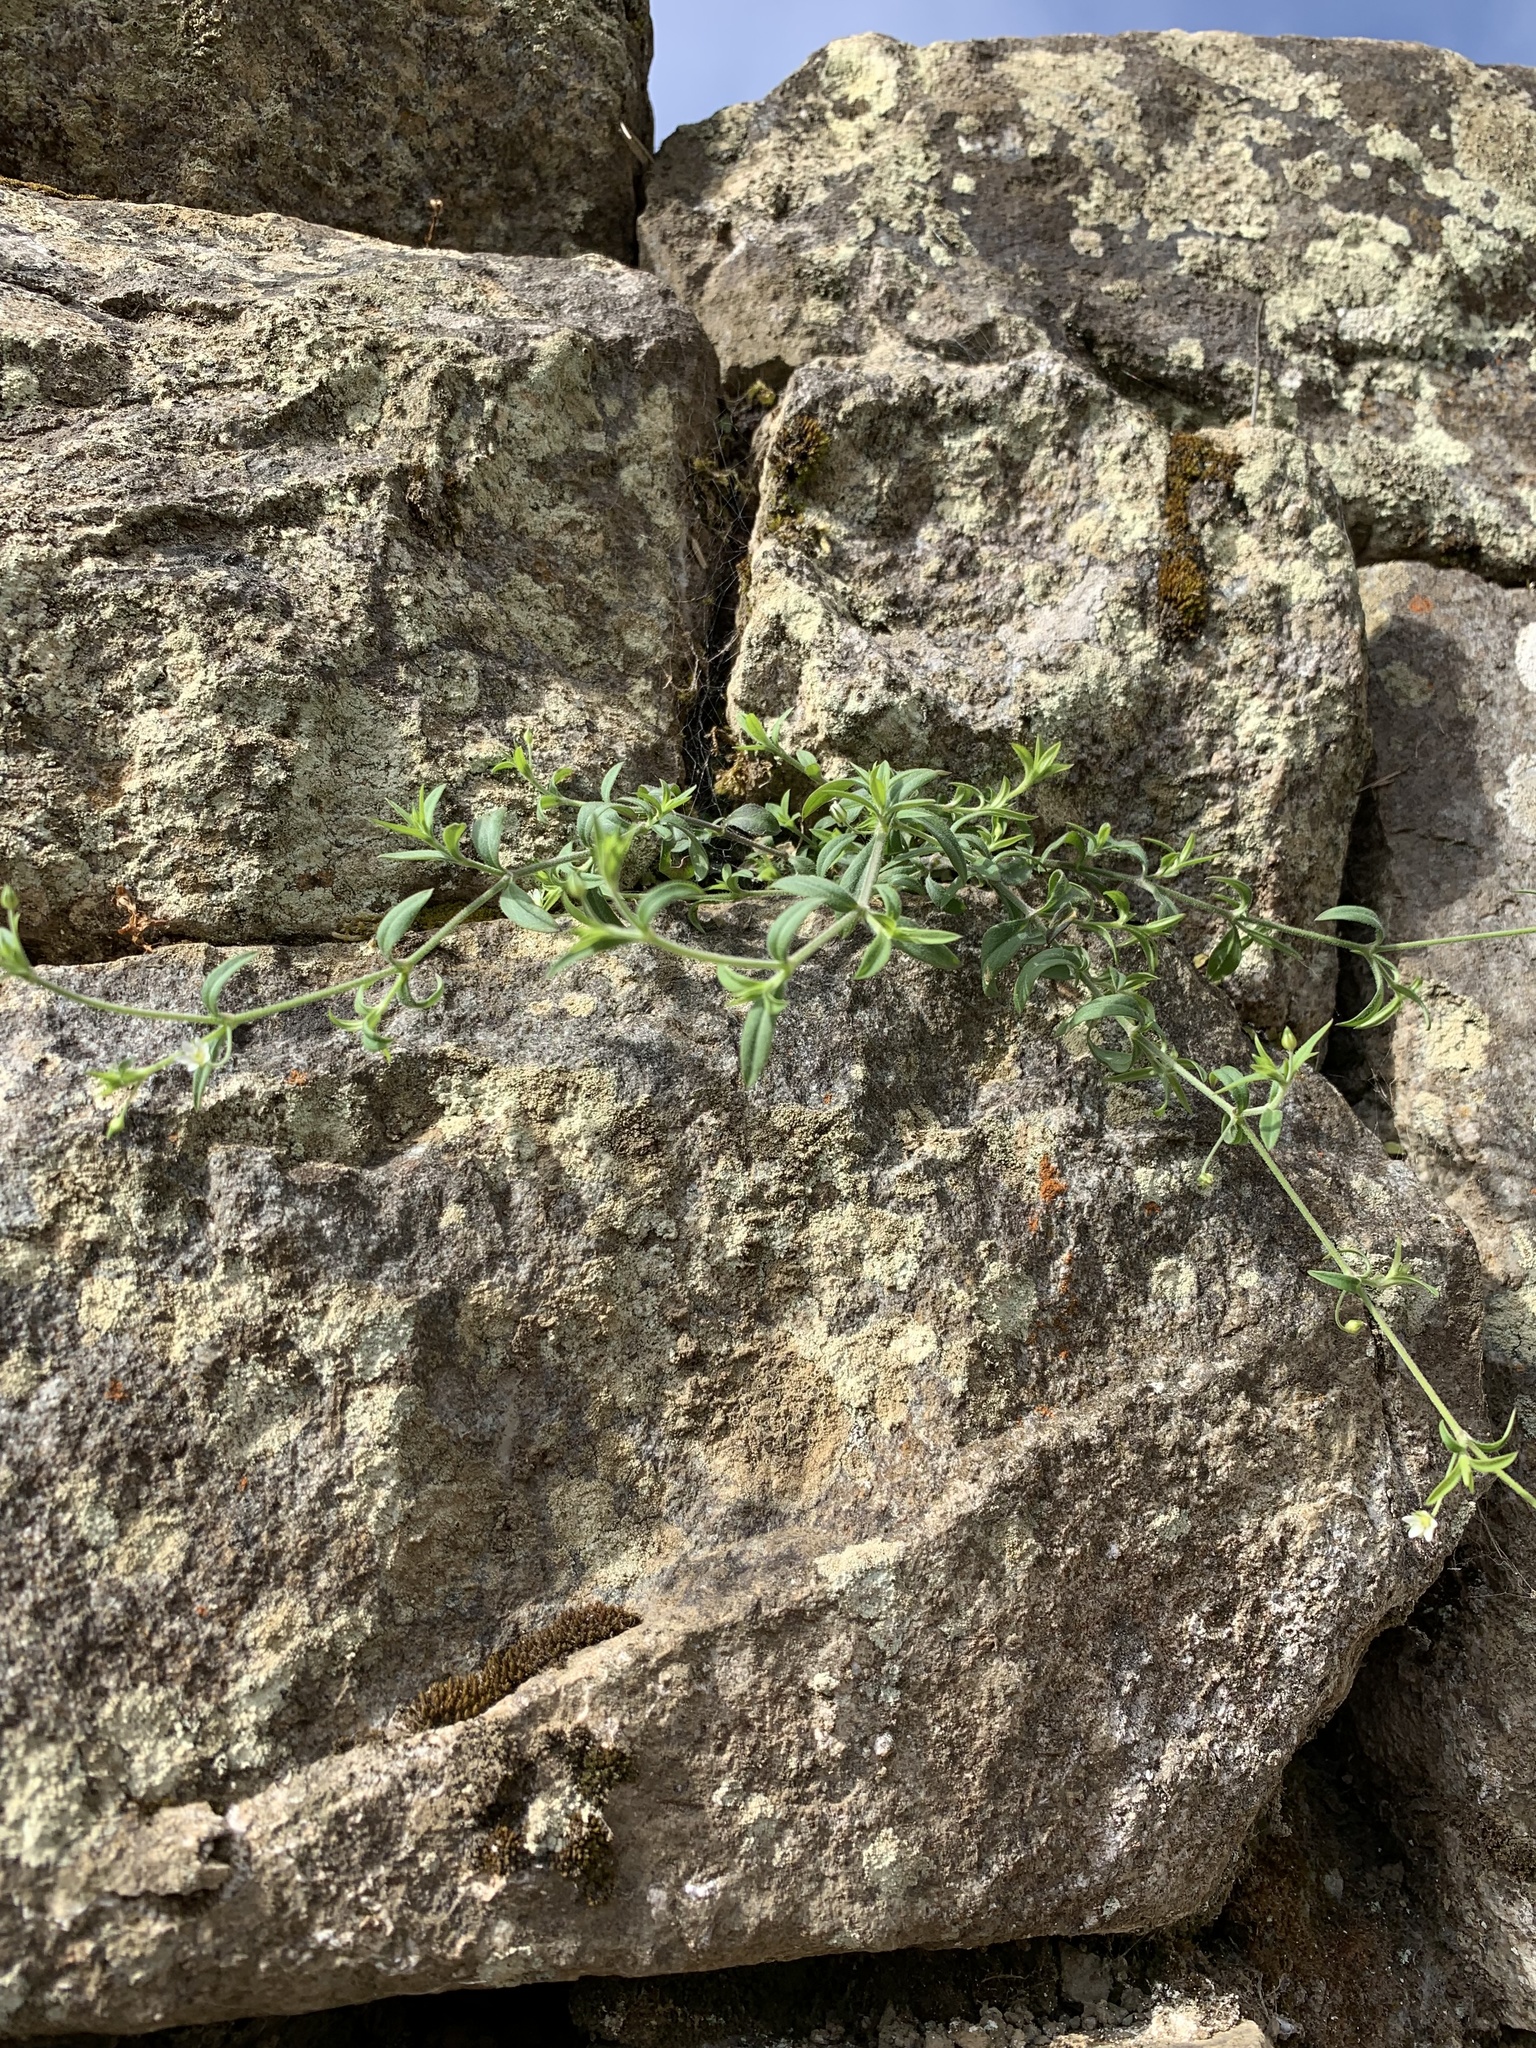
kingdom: Plantae
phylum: Tracheophyta
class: Magnoliopsida
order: Caryophyllales
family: Caryophyllaceae
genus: Arenaria
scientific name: Arenaria lanuginosa
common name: Spread sandwort
